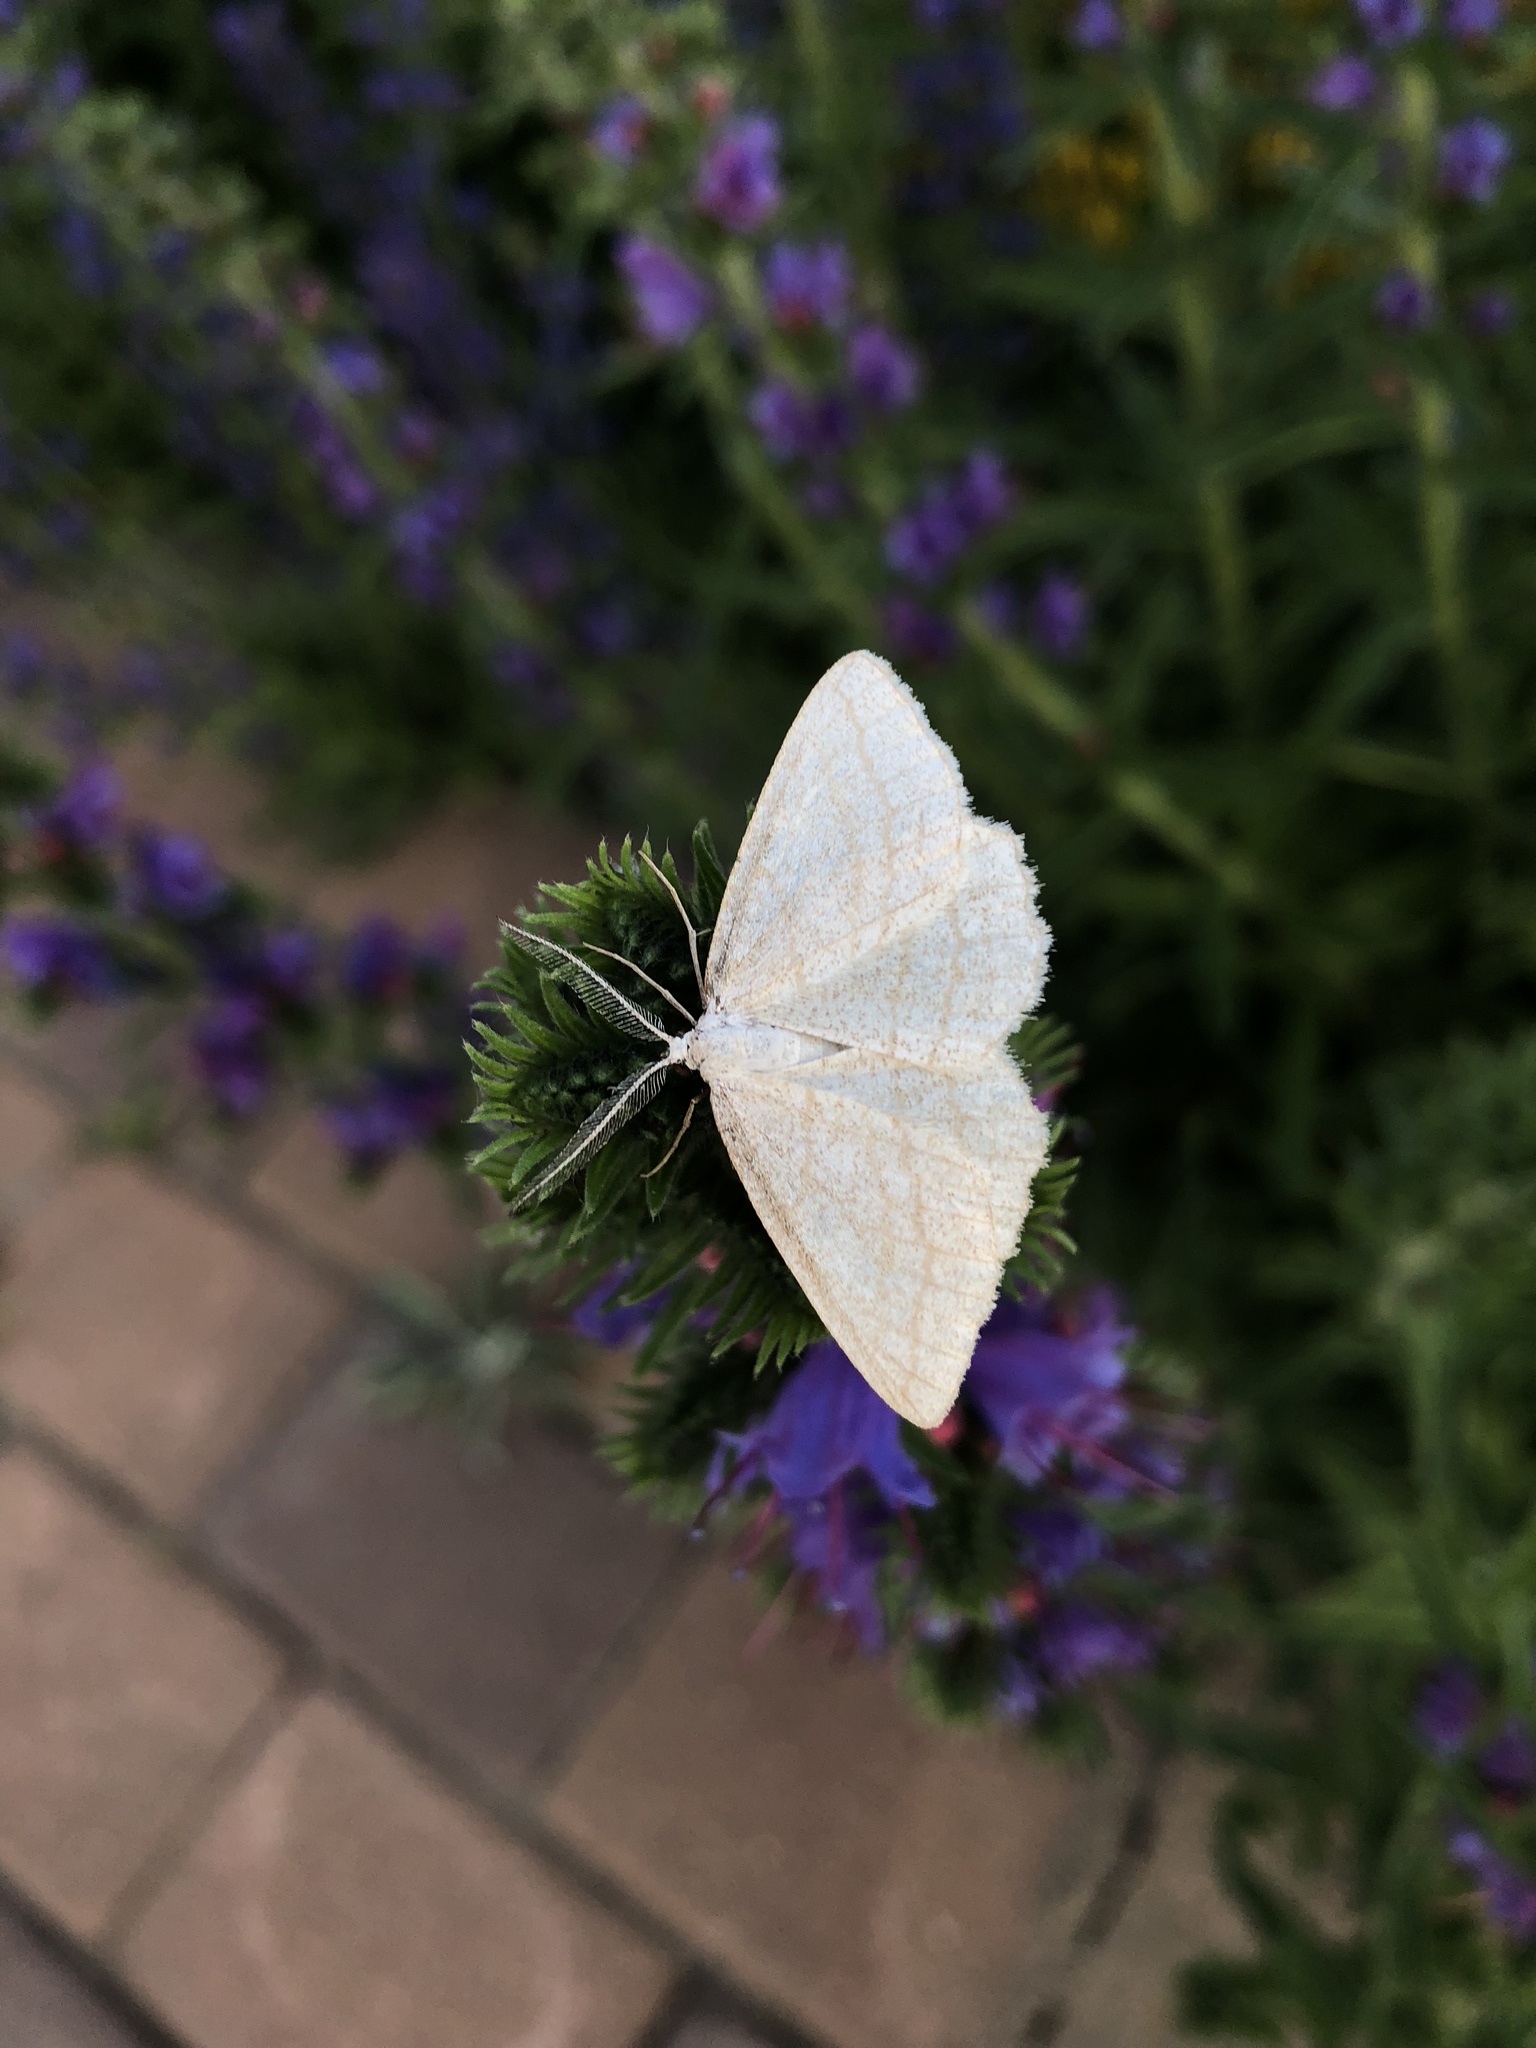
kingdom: Animalia
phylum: Arthropoda
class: Insecta
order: Lepidoptera
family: Geometridae
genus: Perconia
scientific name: Perconia strigillaria
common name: Grass wave
